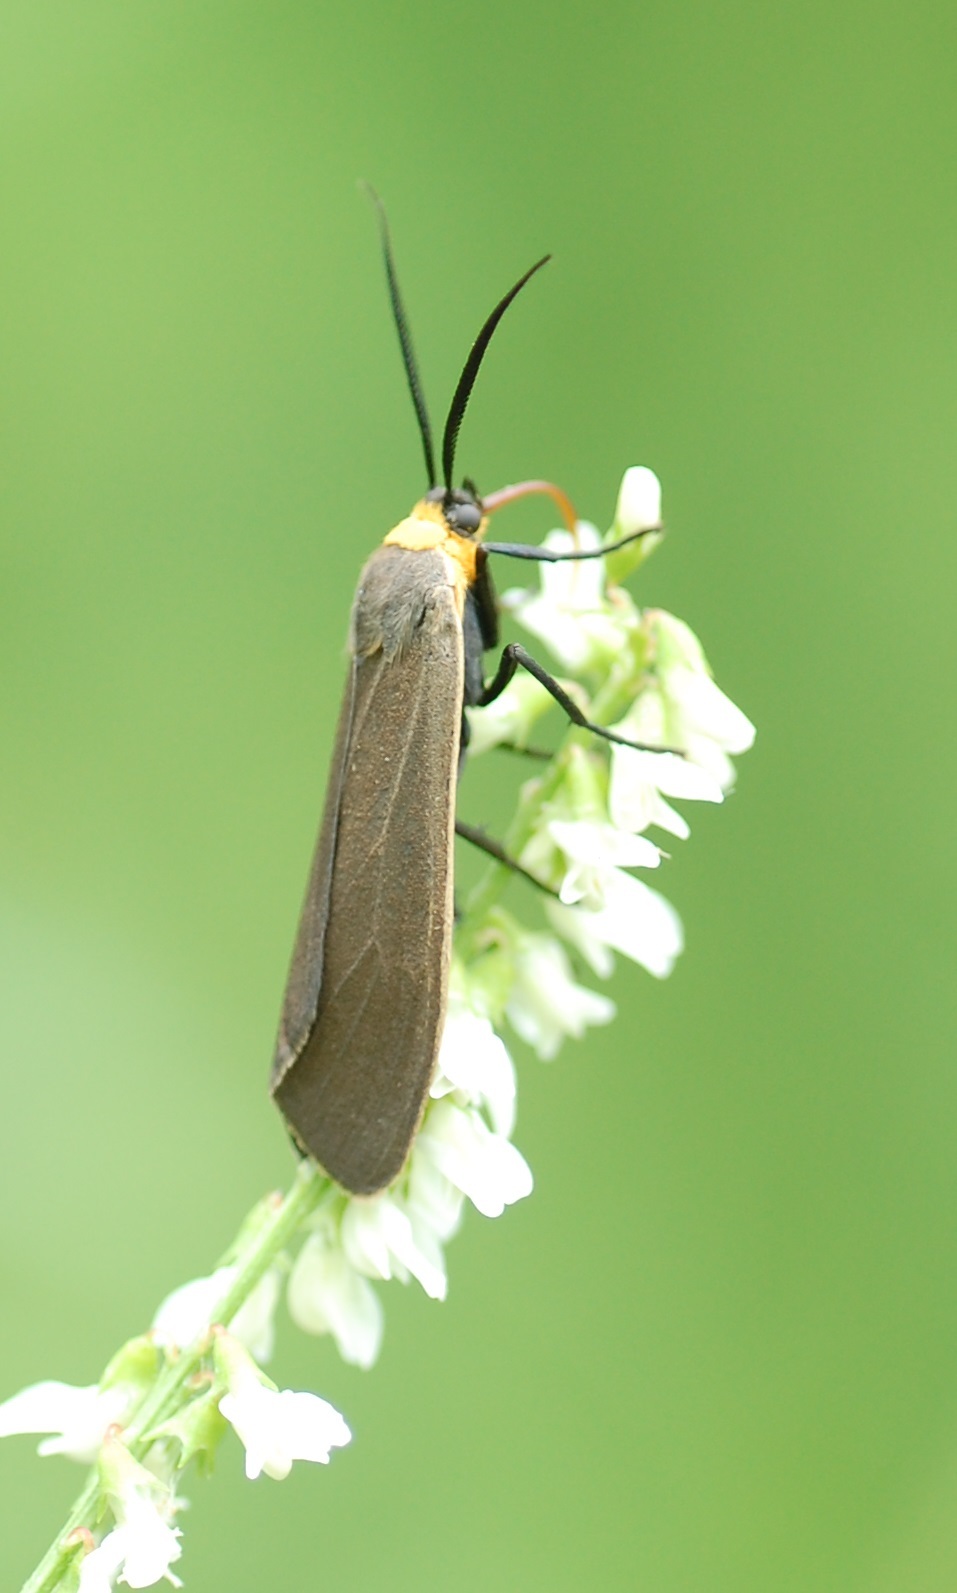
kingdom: Animalia
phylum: Arthropoda
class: Insecta
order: Lepidoptera
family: Erebidae
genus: Cisseps
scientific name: Cisseps fulvicollis
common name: Yellow-collared scape moth
